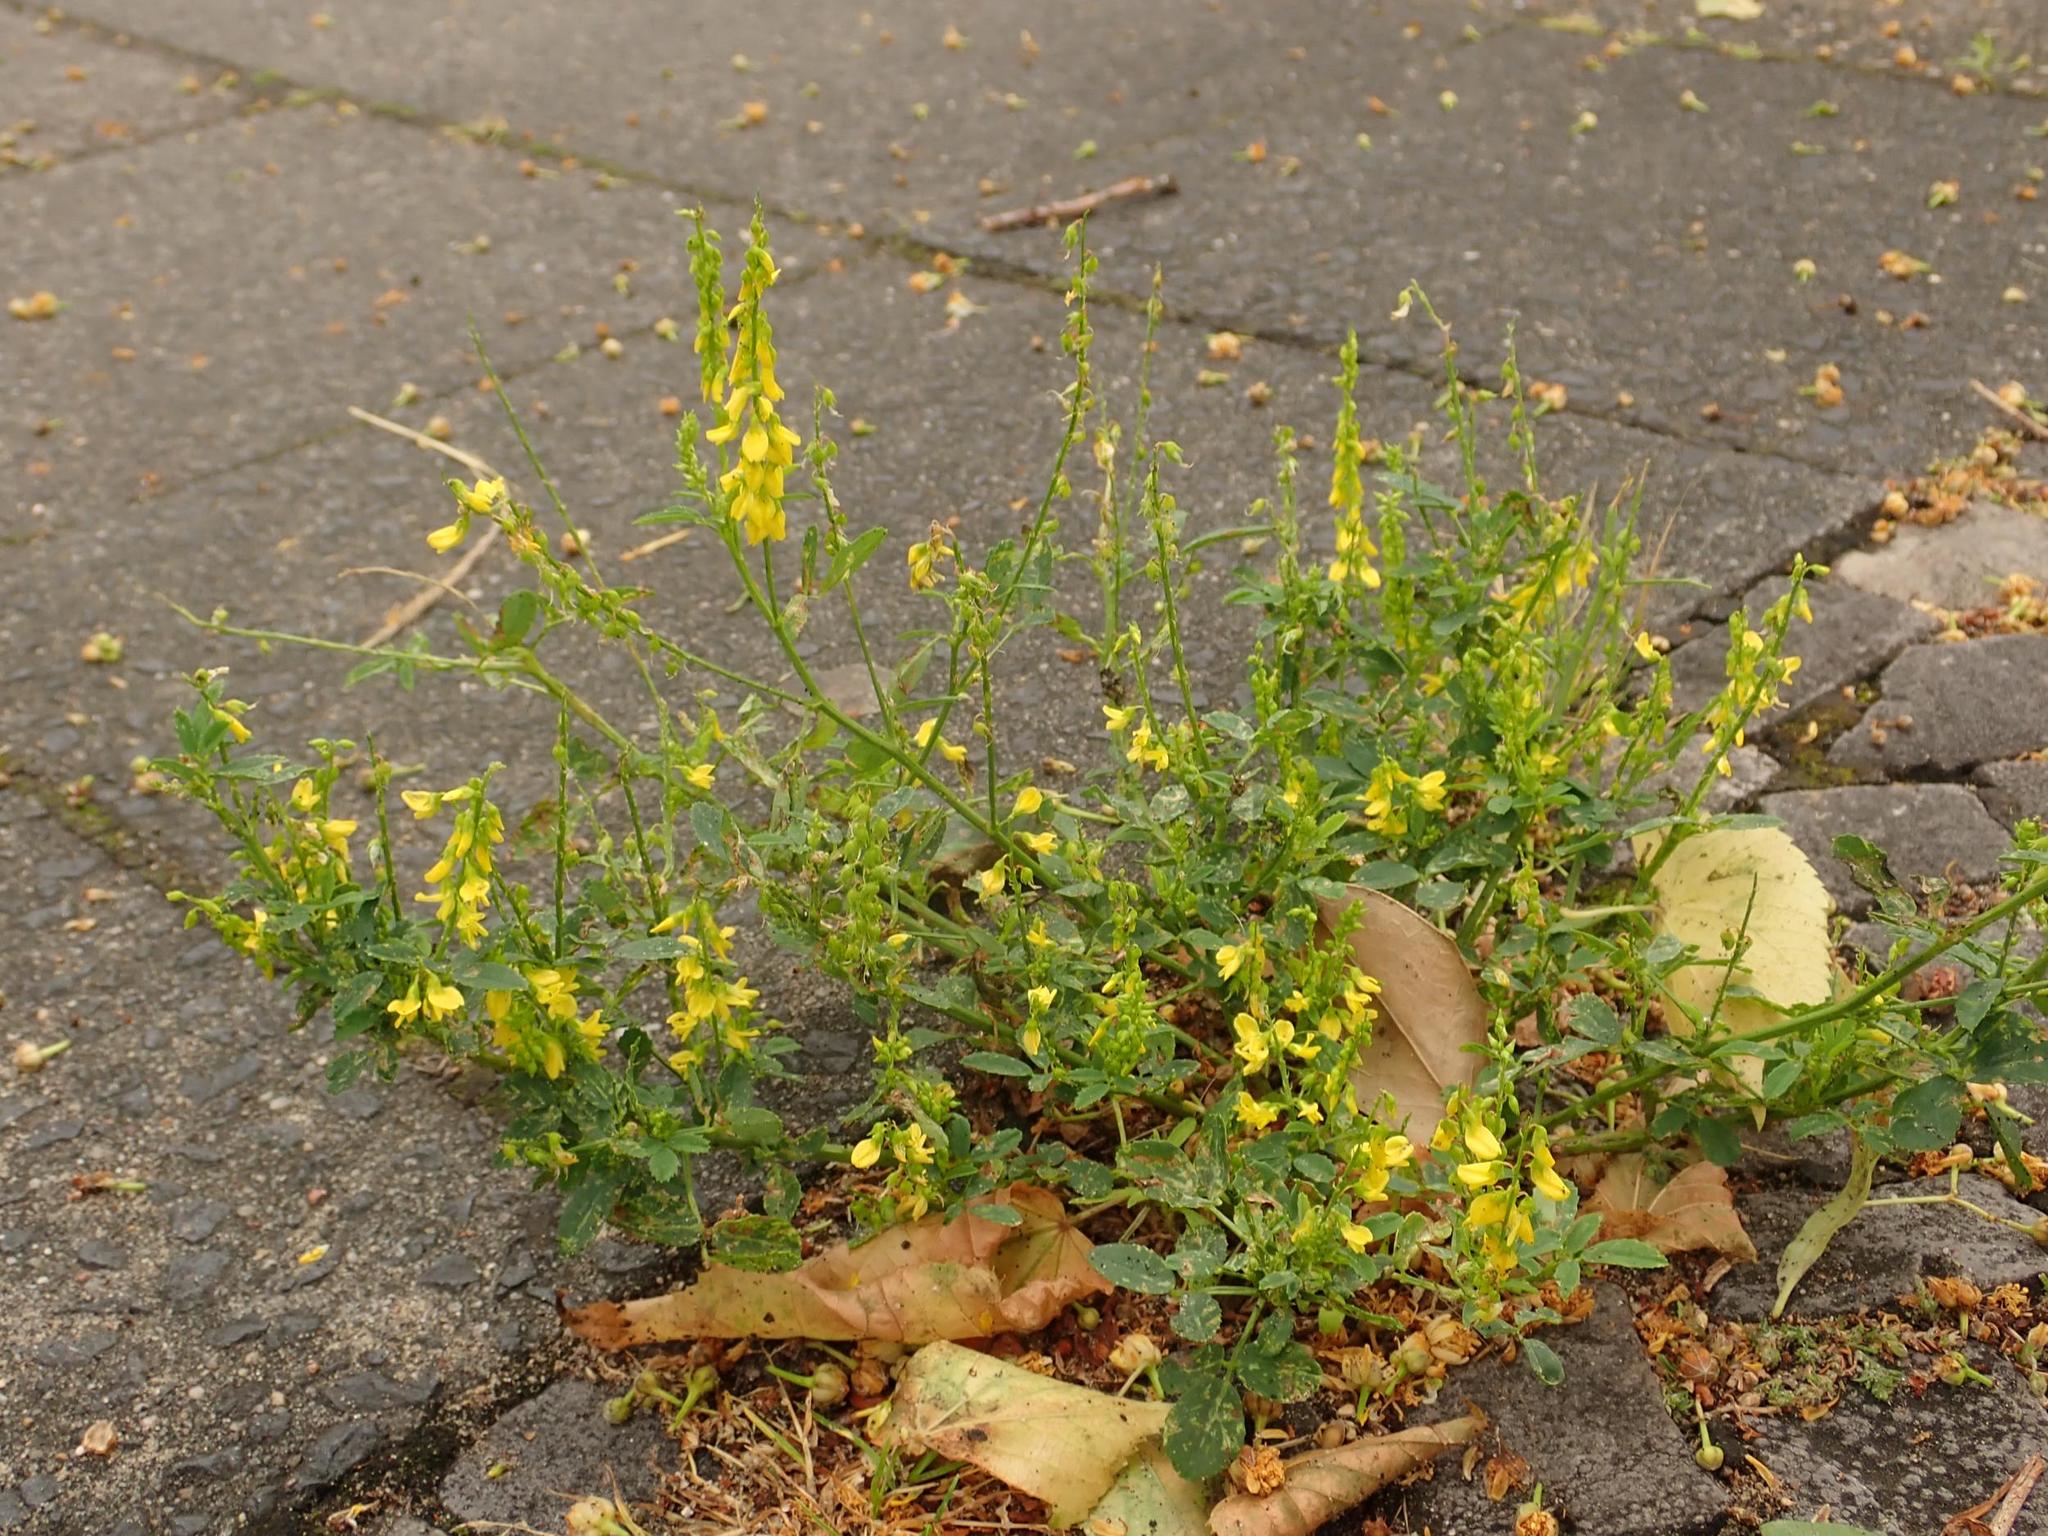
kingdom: Plantae
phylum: Tracheophyta
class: Magnoliopsida
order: Fabales
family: Fabaceae
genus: Melilotus
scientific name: Melilotus officinalis
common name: Sweetclover
